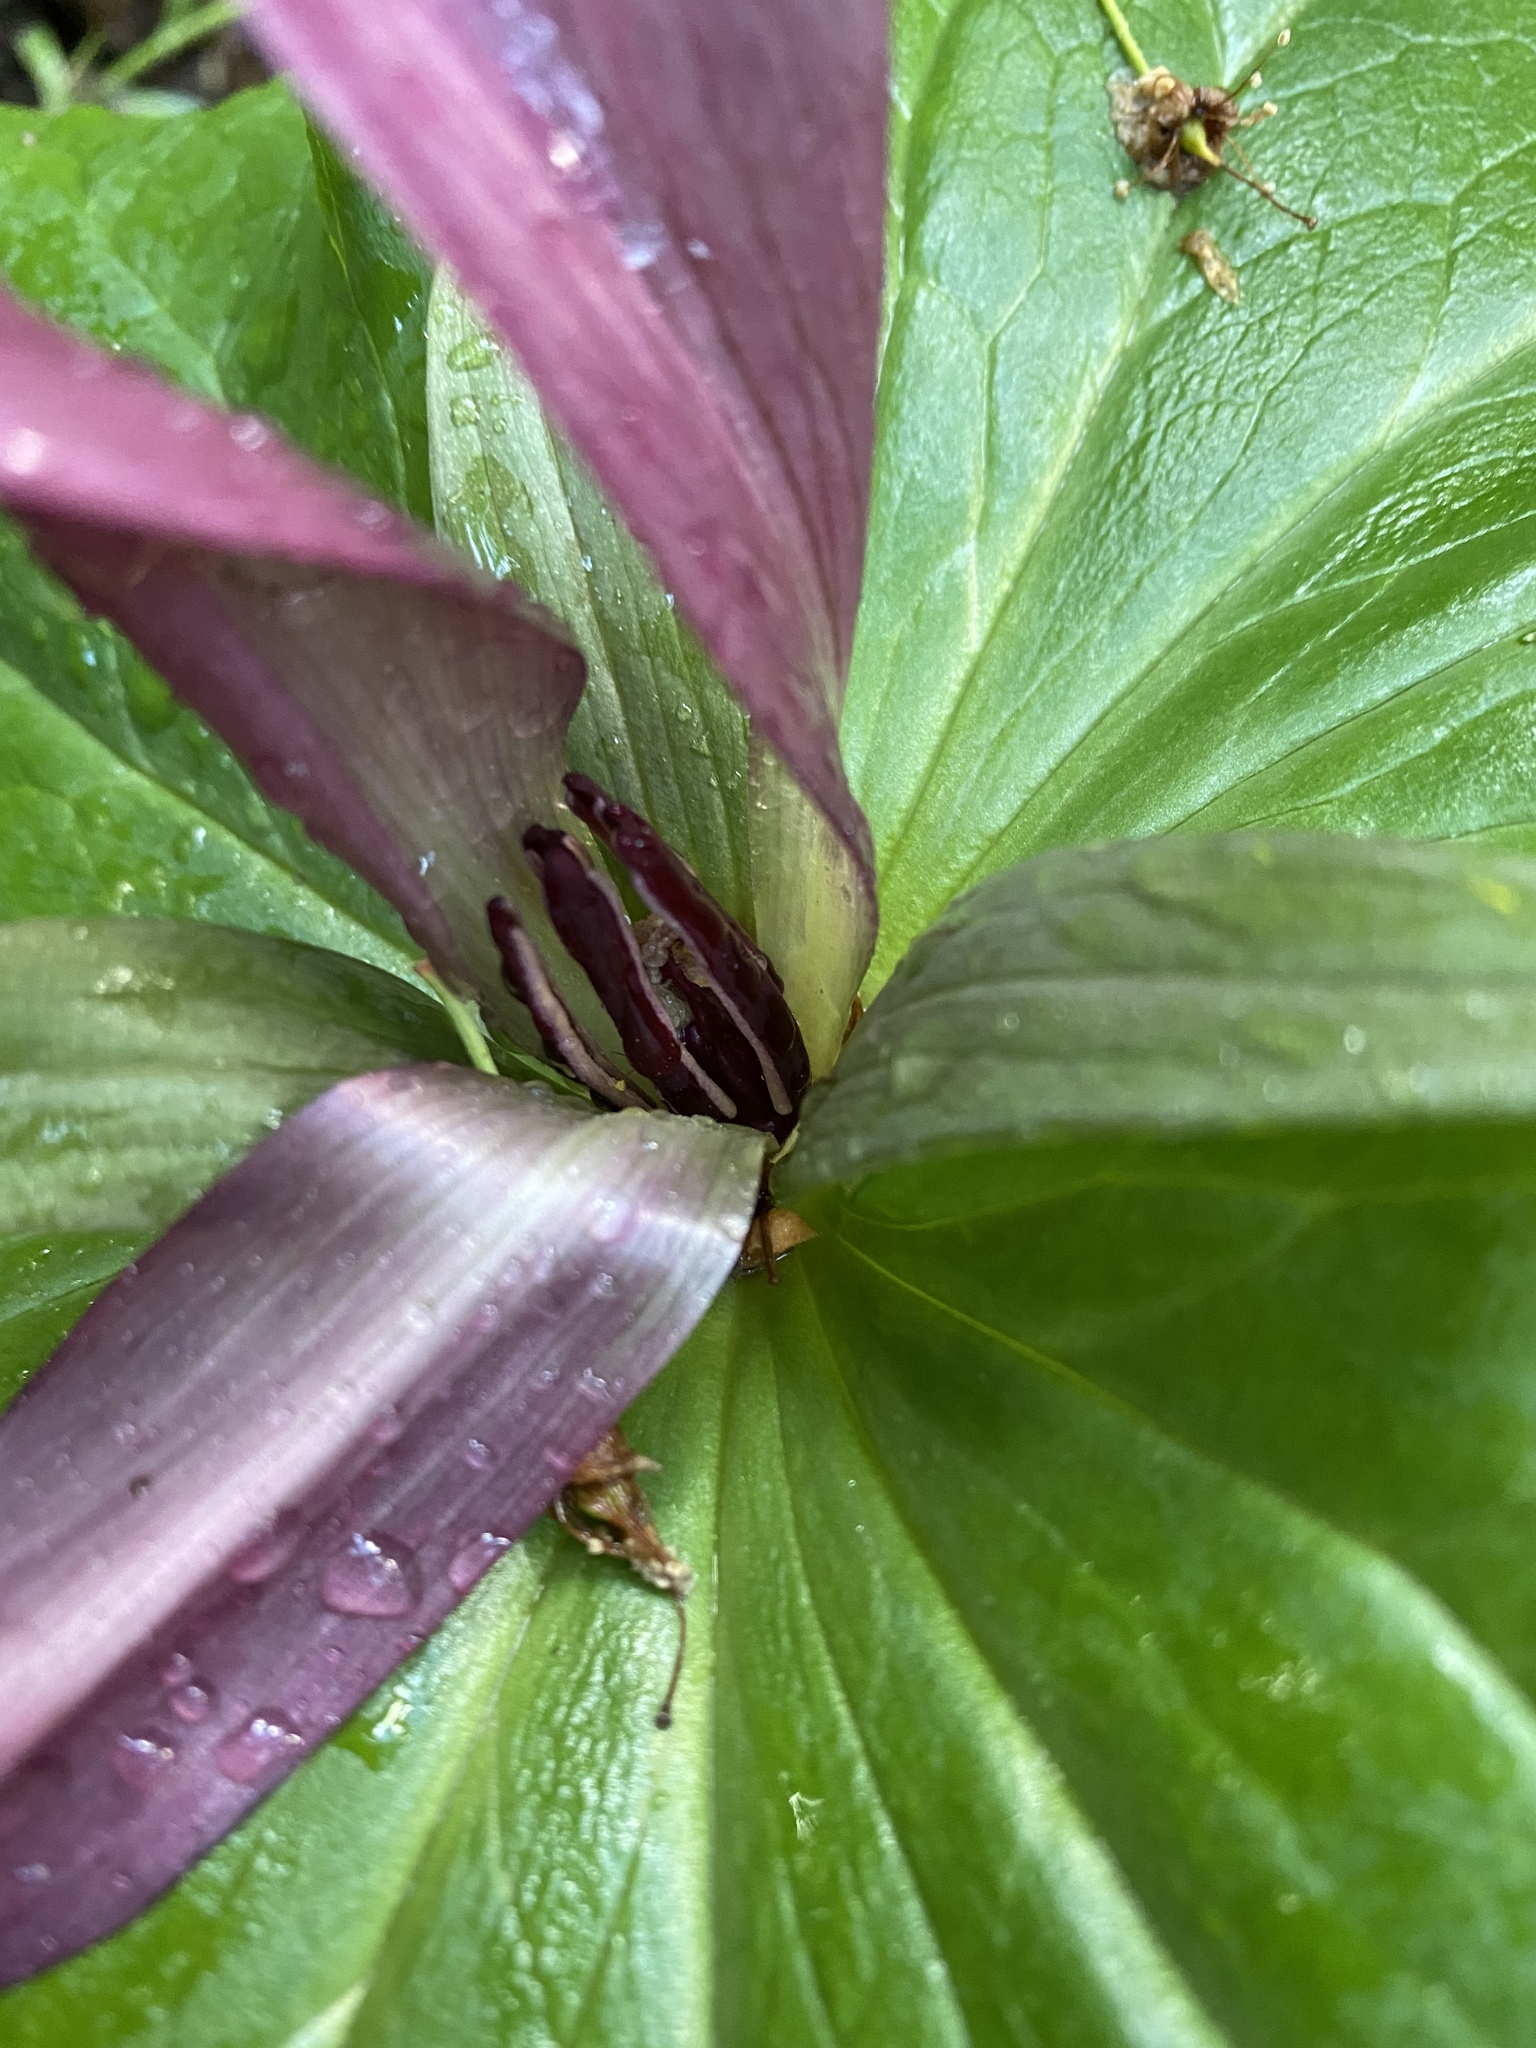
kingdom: Plantae
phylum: Tracheophyta
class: Liliopsida
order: Liliales
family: Melanthiaceae
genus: Trillium
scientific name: Trillium chloropetalum
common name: Giant trillium
